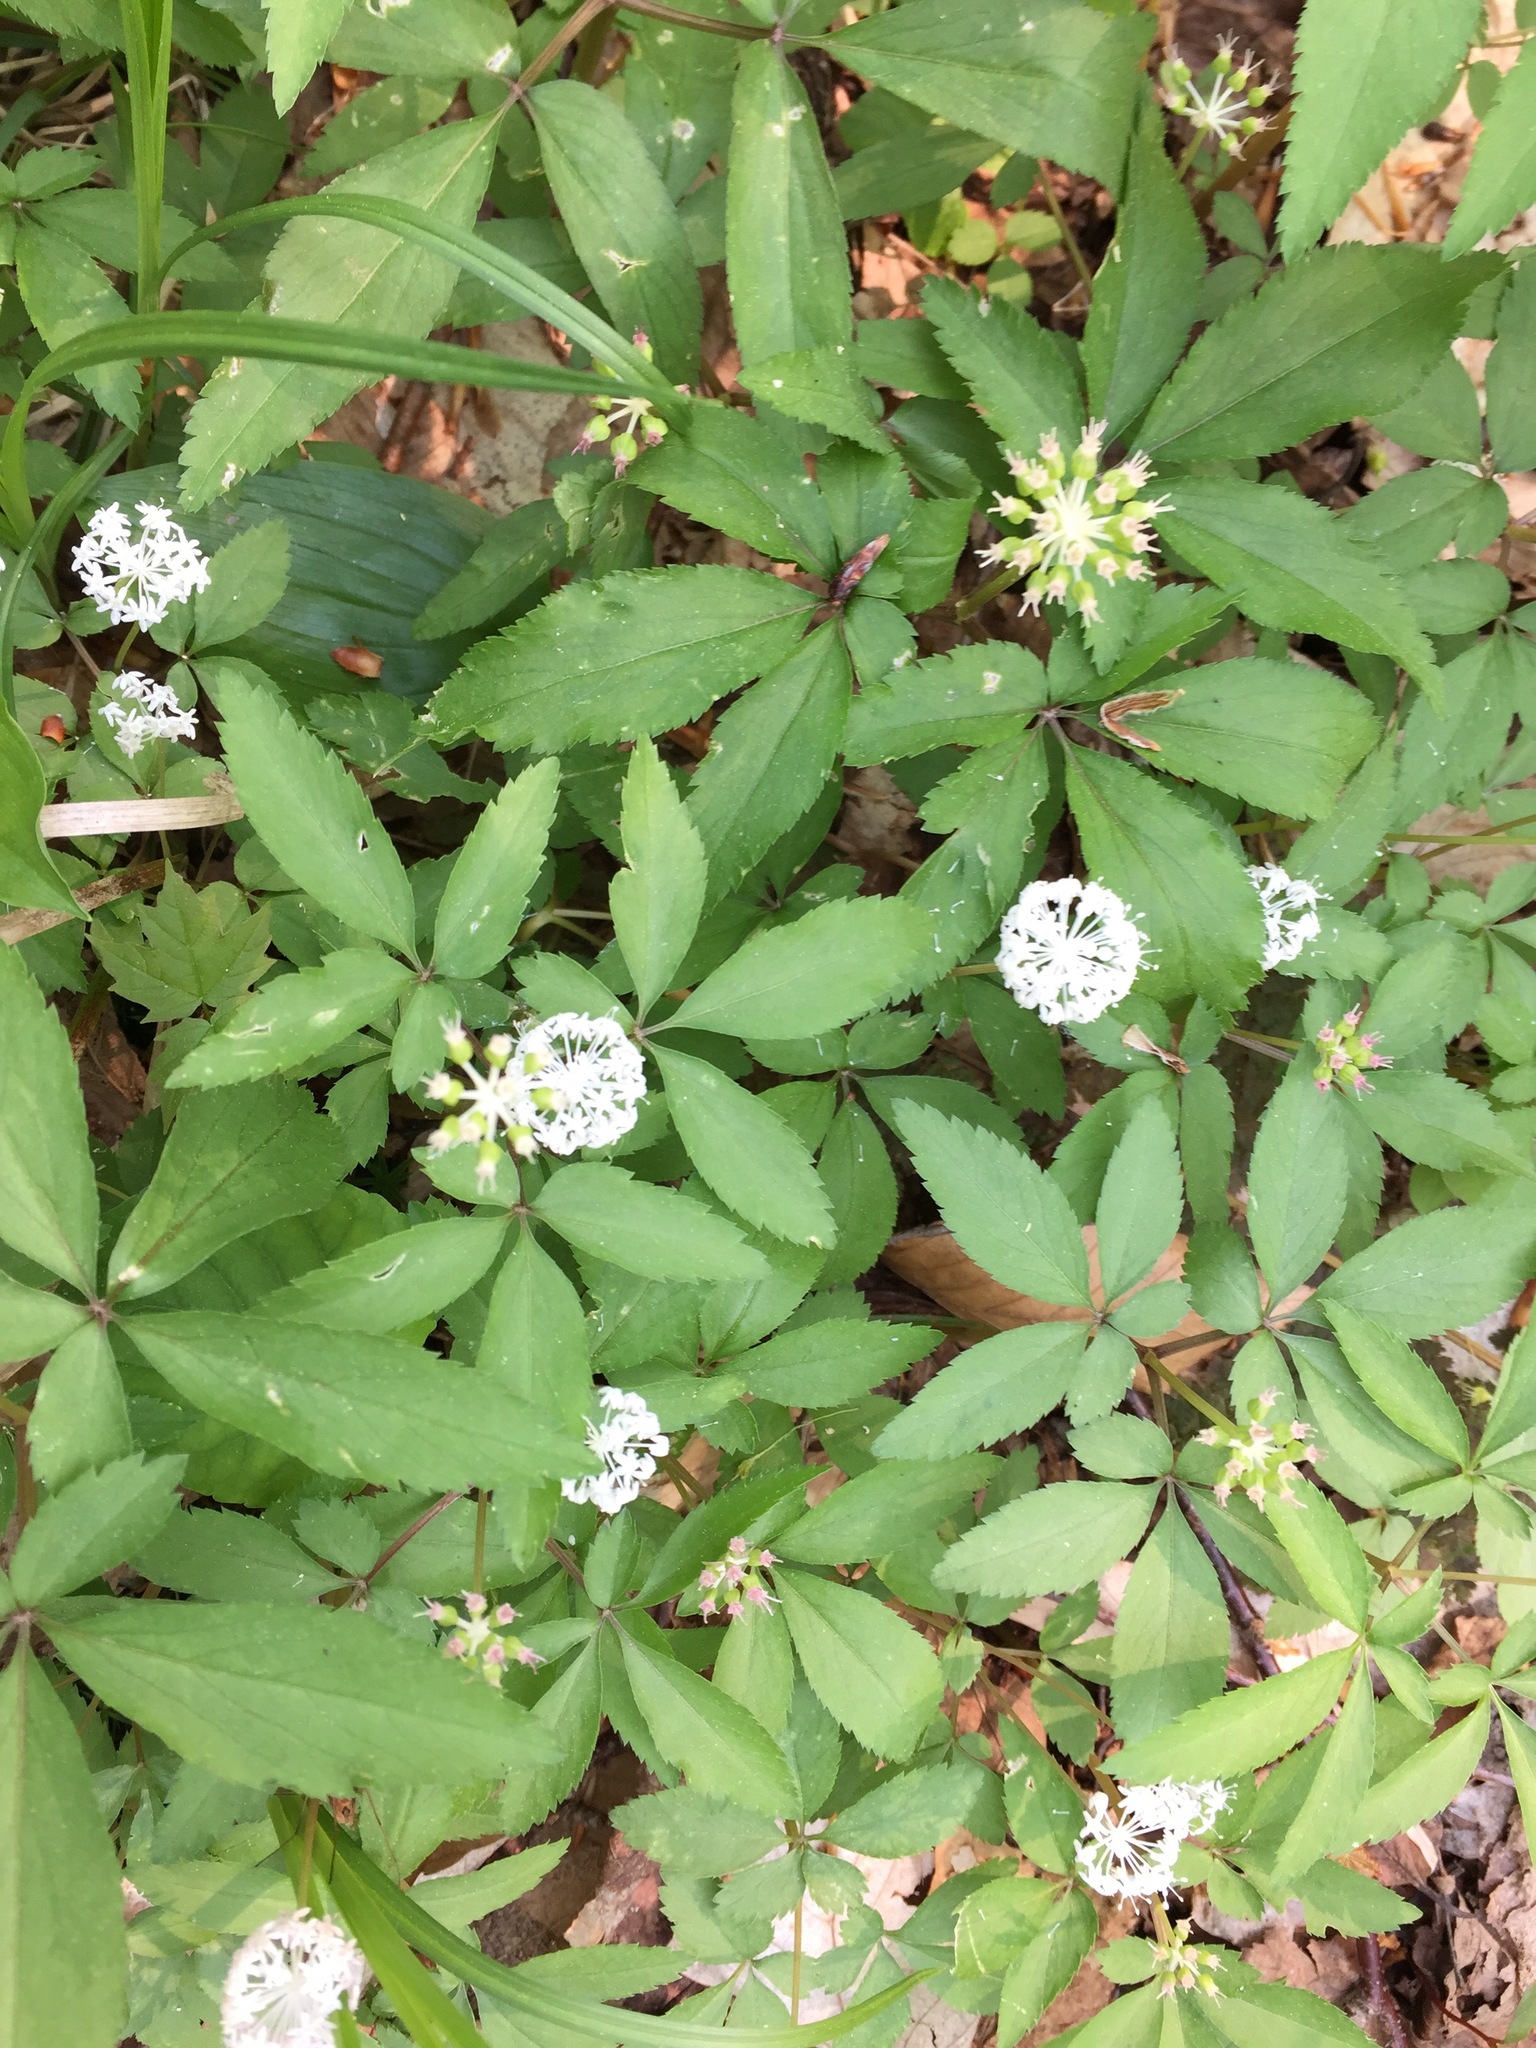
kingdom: Plantae
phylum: Tracheophyta
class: Magnoliopsida
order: Apiales
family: Araliaceae
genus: Panax
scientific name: Panax trifolius
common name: Dwarf ginseng
